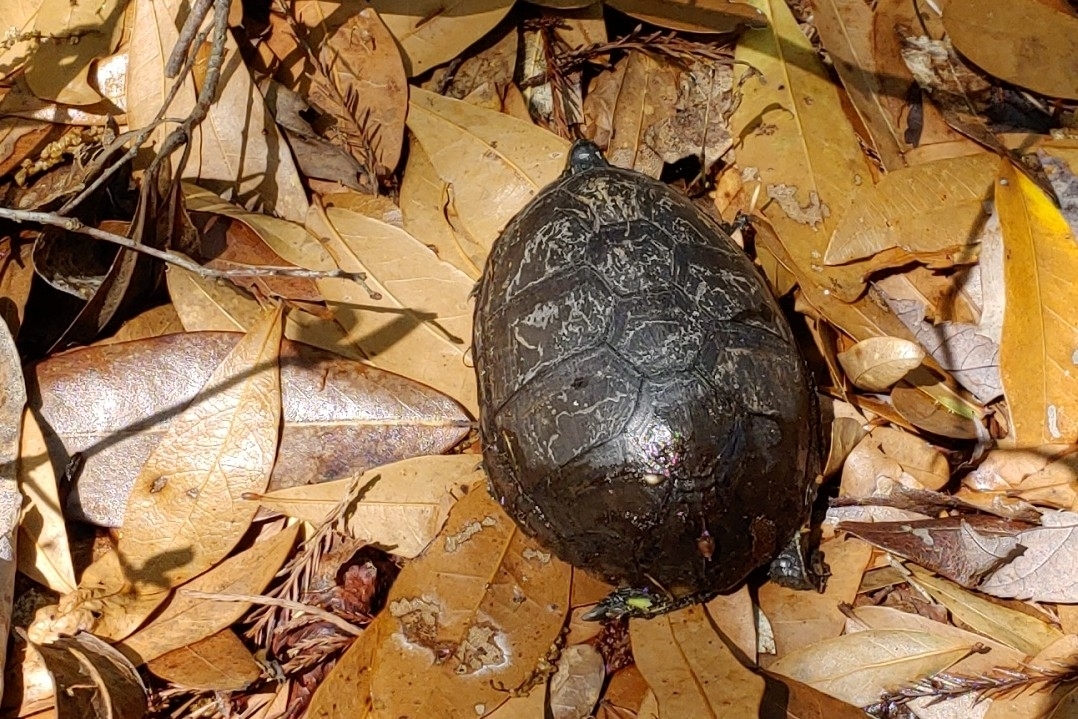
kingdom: Animalia
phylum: Chordata
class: Testudines
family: Kinosternidae
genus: Kinosternon
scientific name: Kinosternon subrubrum
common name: Eastern mud turtle
